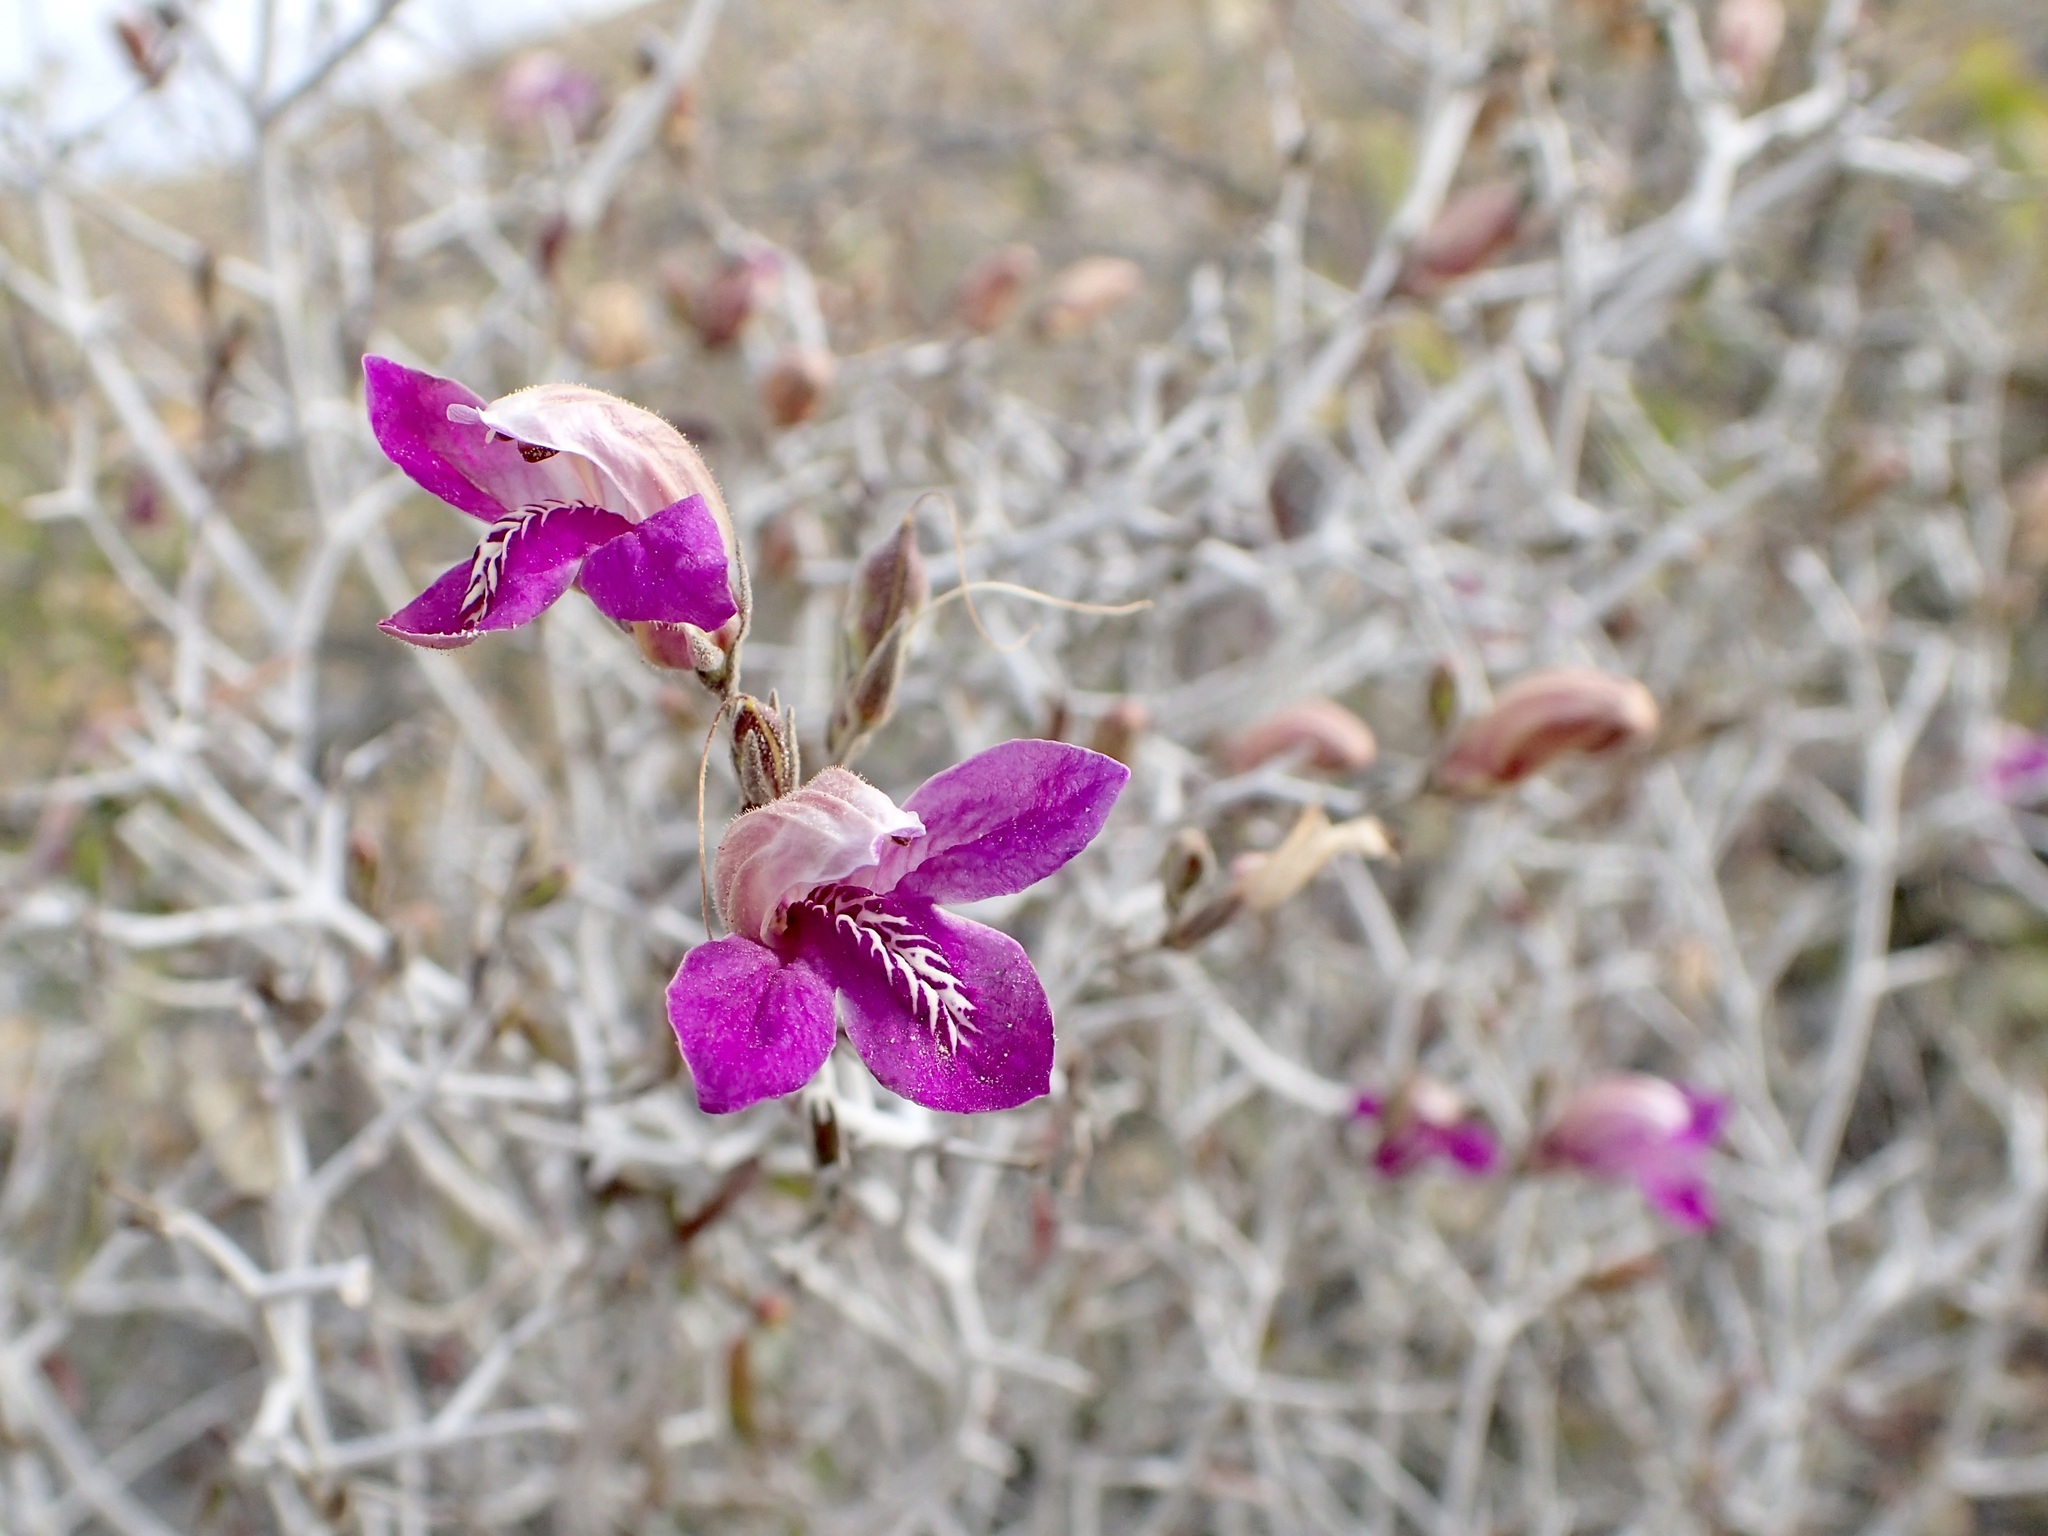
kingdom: Plantae
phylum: Tracheophyta
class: Magnoliopsida
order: Lamiales
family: Acanthaceae
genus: Justicia
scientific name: Justicia insolita
